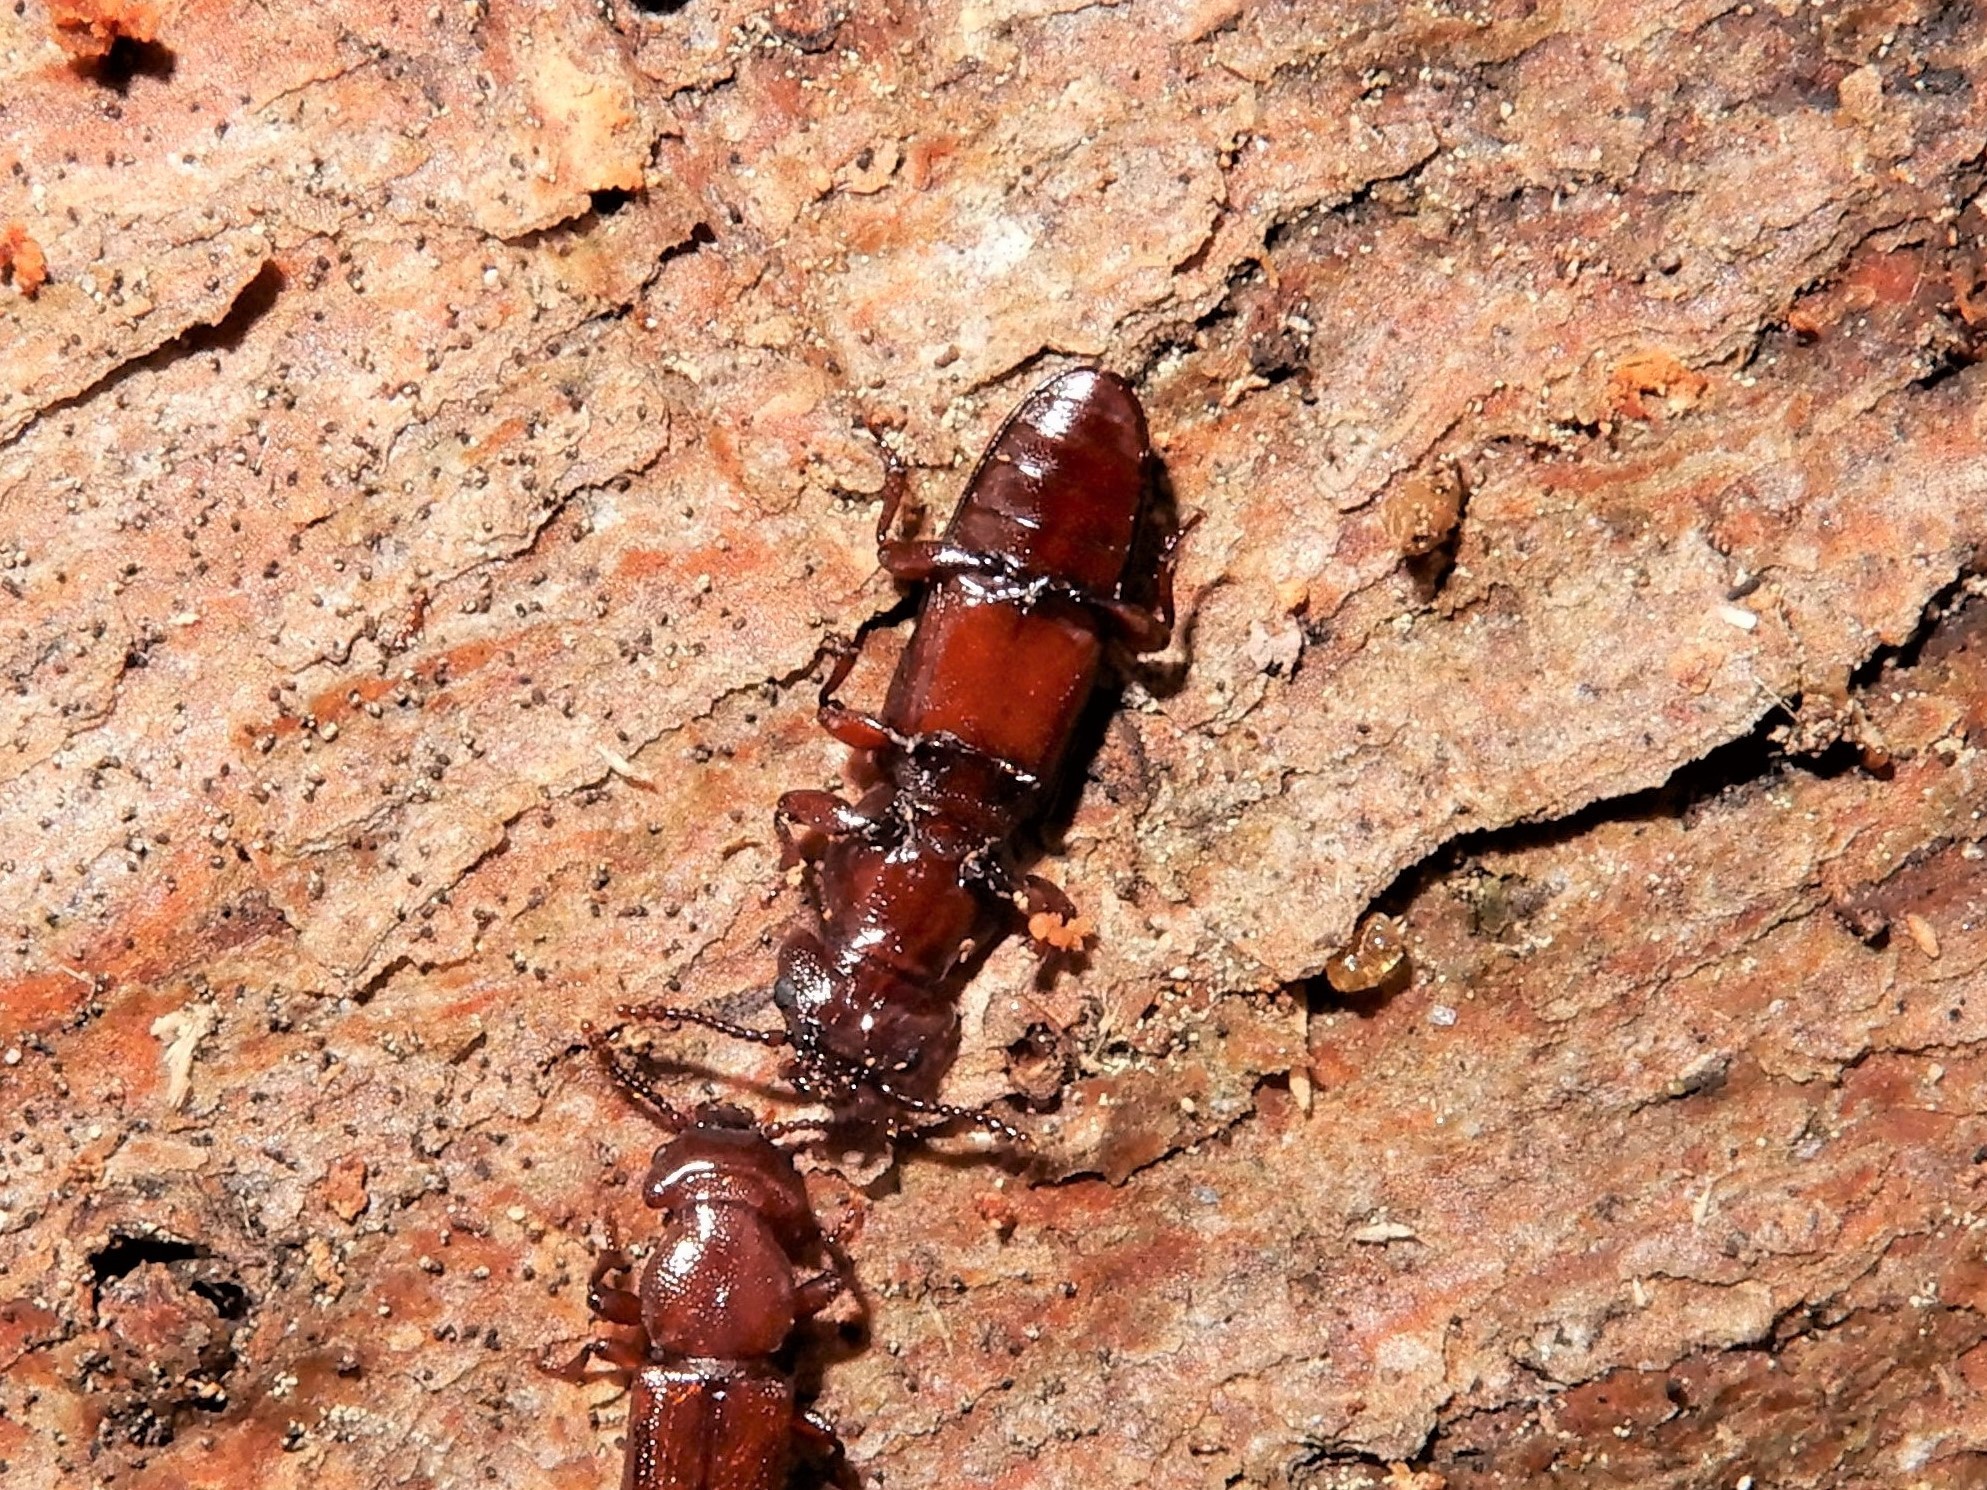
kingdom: Animalia
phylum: Arthropoda
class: Insecta
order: Coleoptera
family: Prostomidae
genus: Dryocora
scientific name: Dryocora
